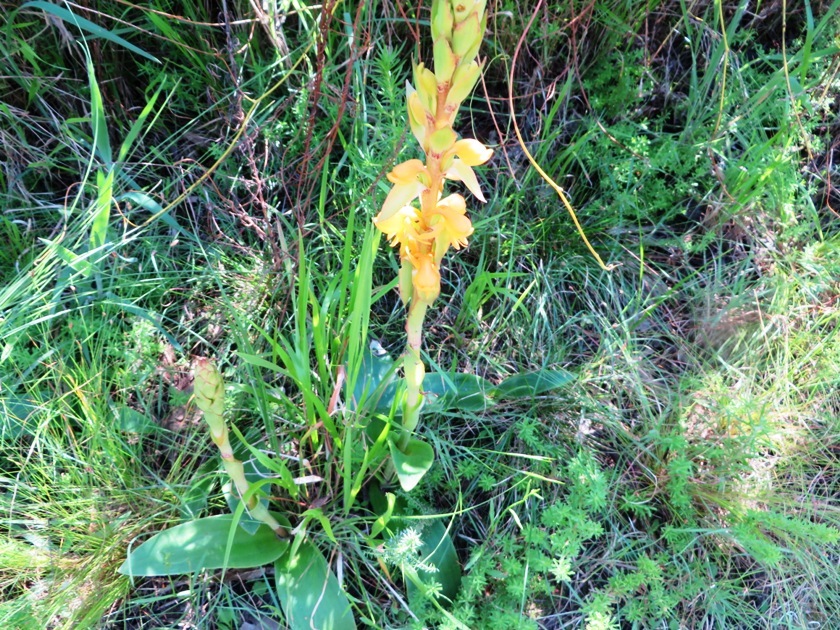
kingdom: Plantae
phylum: Tracheophyta
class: Liliopsida
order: Asparagales
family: Orchidaceae
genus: Satyrium
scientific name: Satyrium coriifolium
